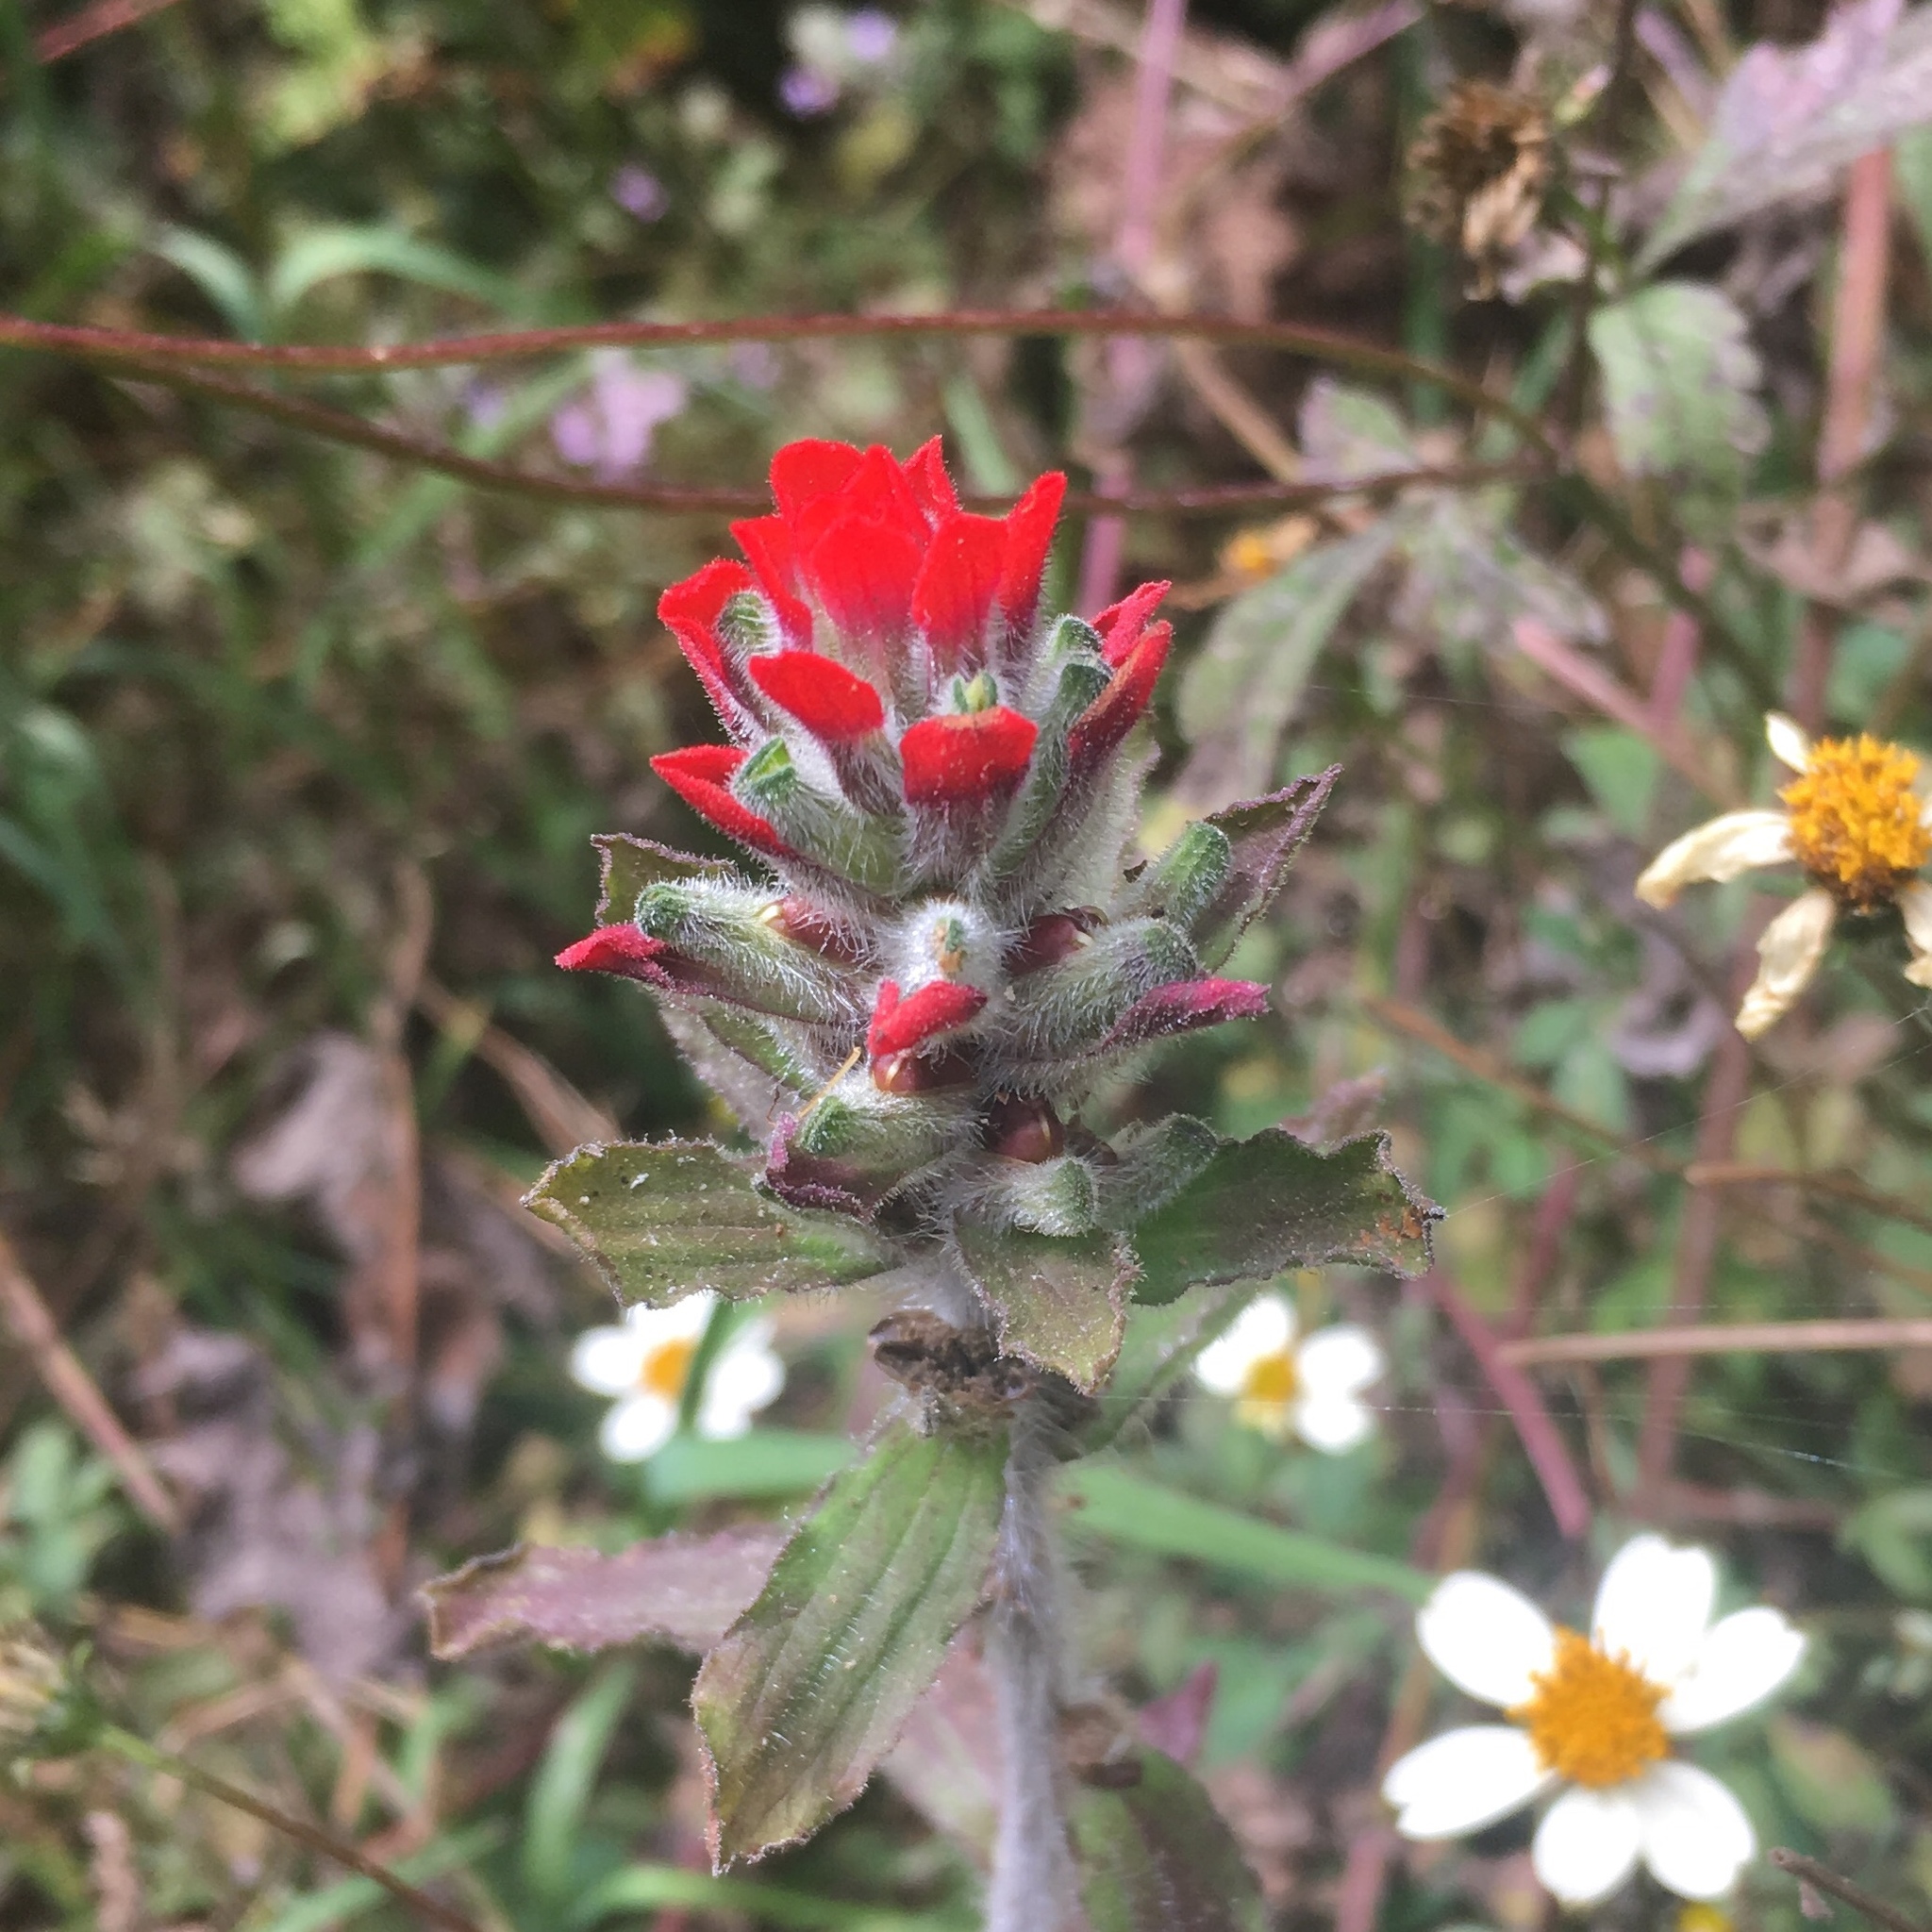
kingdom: Plantae
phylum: Tracheophyta
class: Magnoliopsida
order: Lamiales
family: Orobanchaceae
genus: Castilleja
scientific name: Castilleja arvensis
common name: Indian paintbrush
